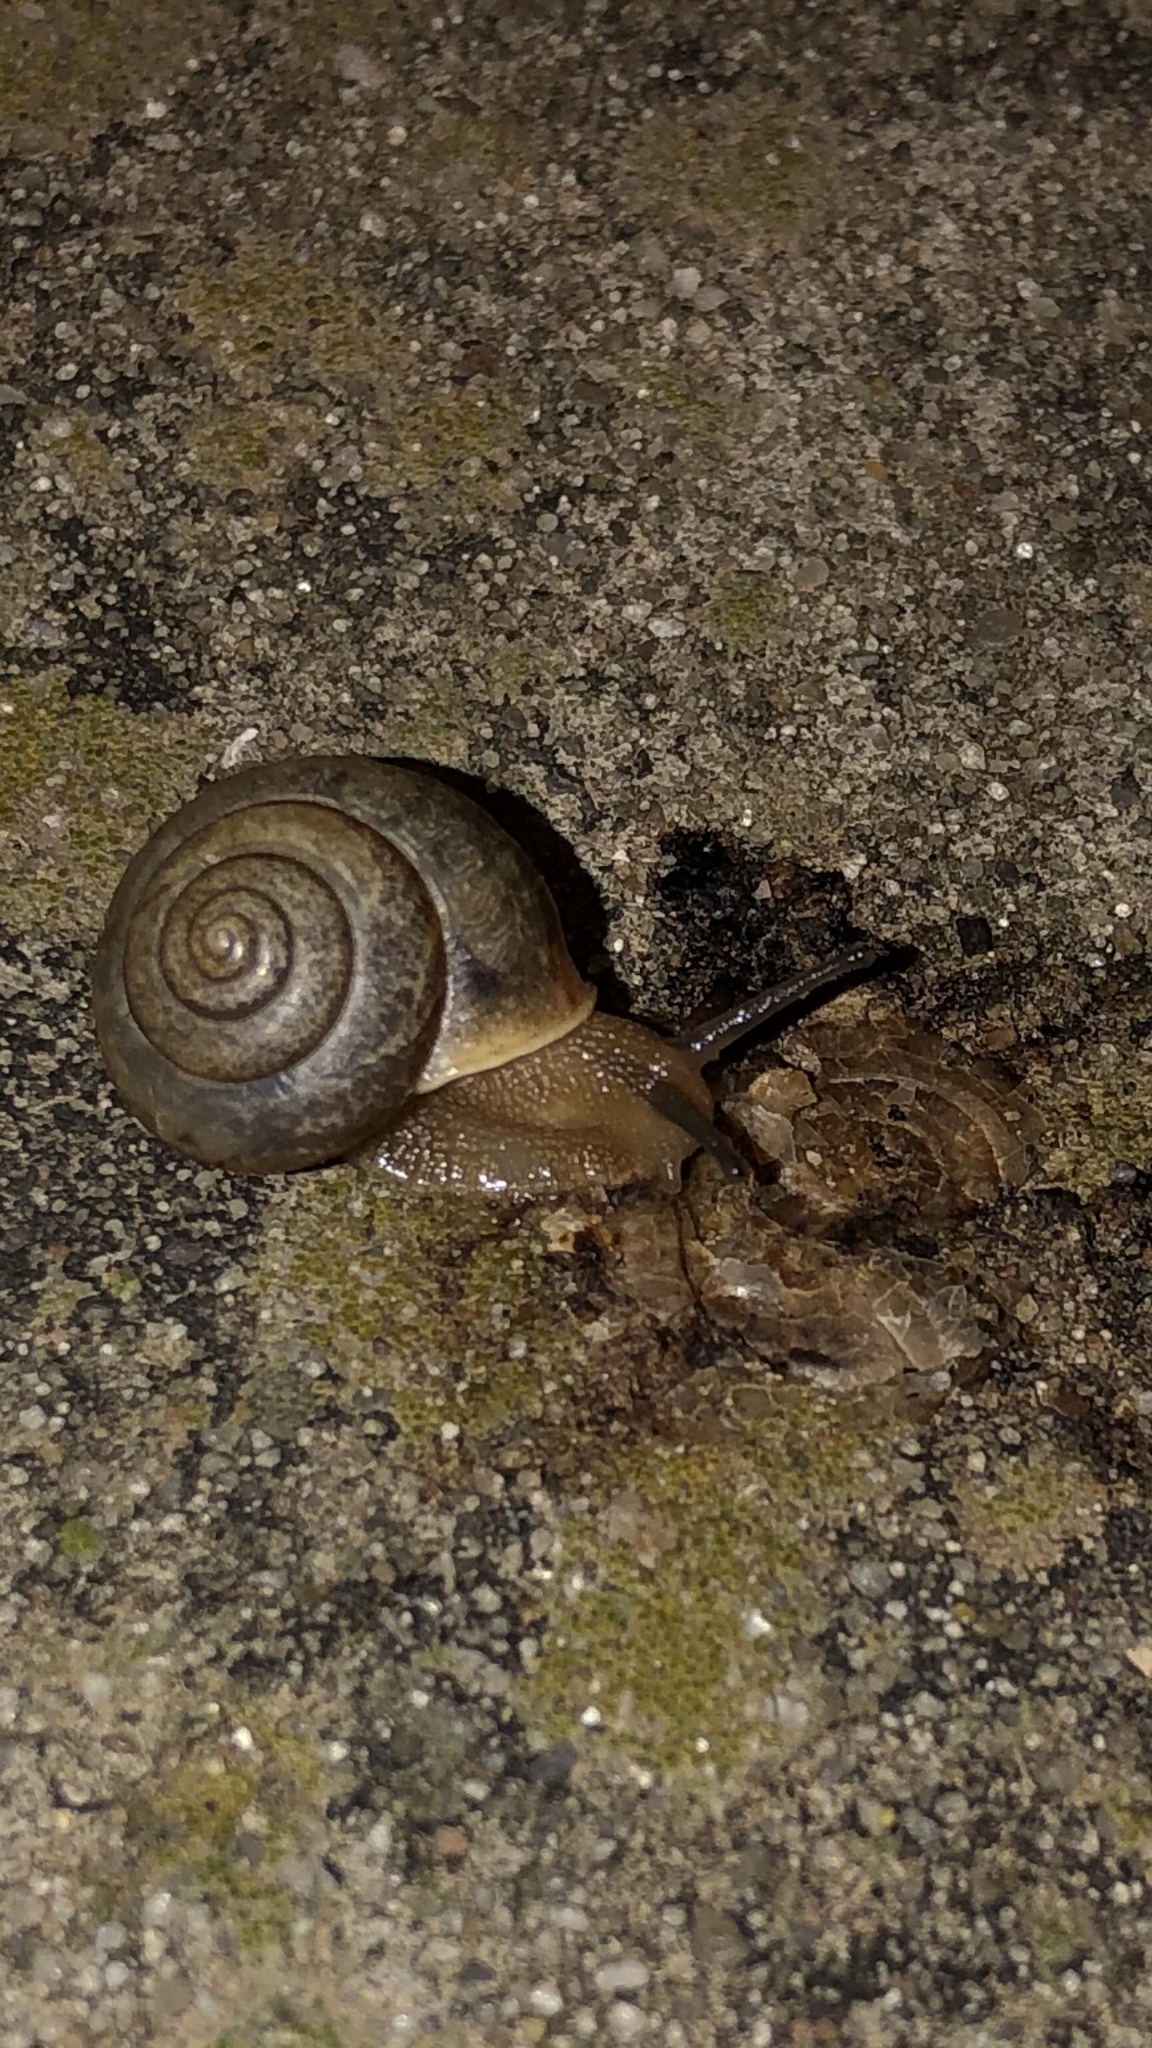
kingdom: Animalia
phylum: Mollusca
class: Gastropoda
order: Stylommatophora
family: Camaenidae
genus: Bradybaena
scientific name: Bradybaena similaris
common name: Asian trampsnail
